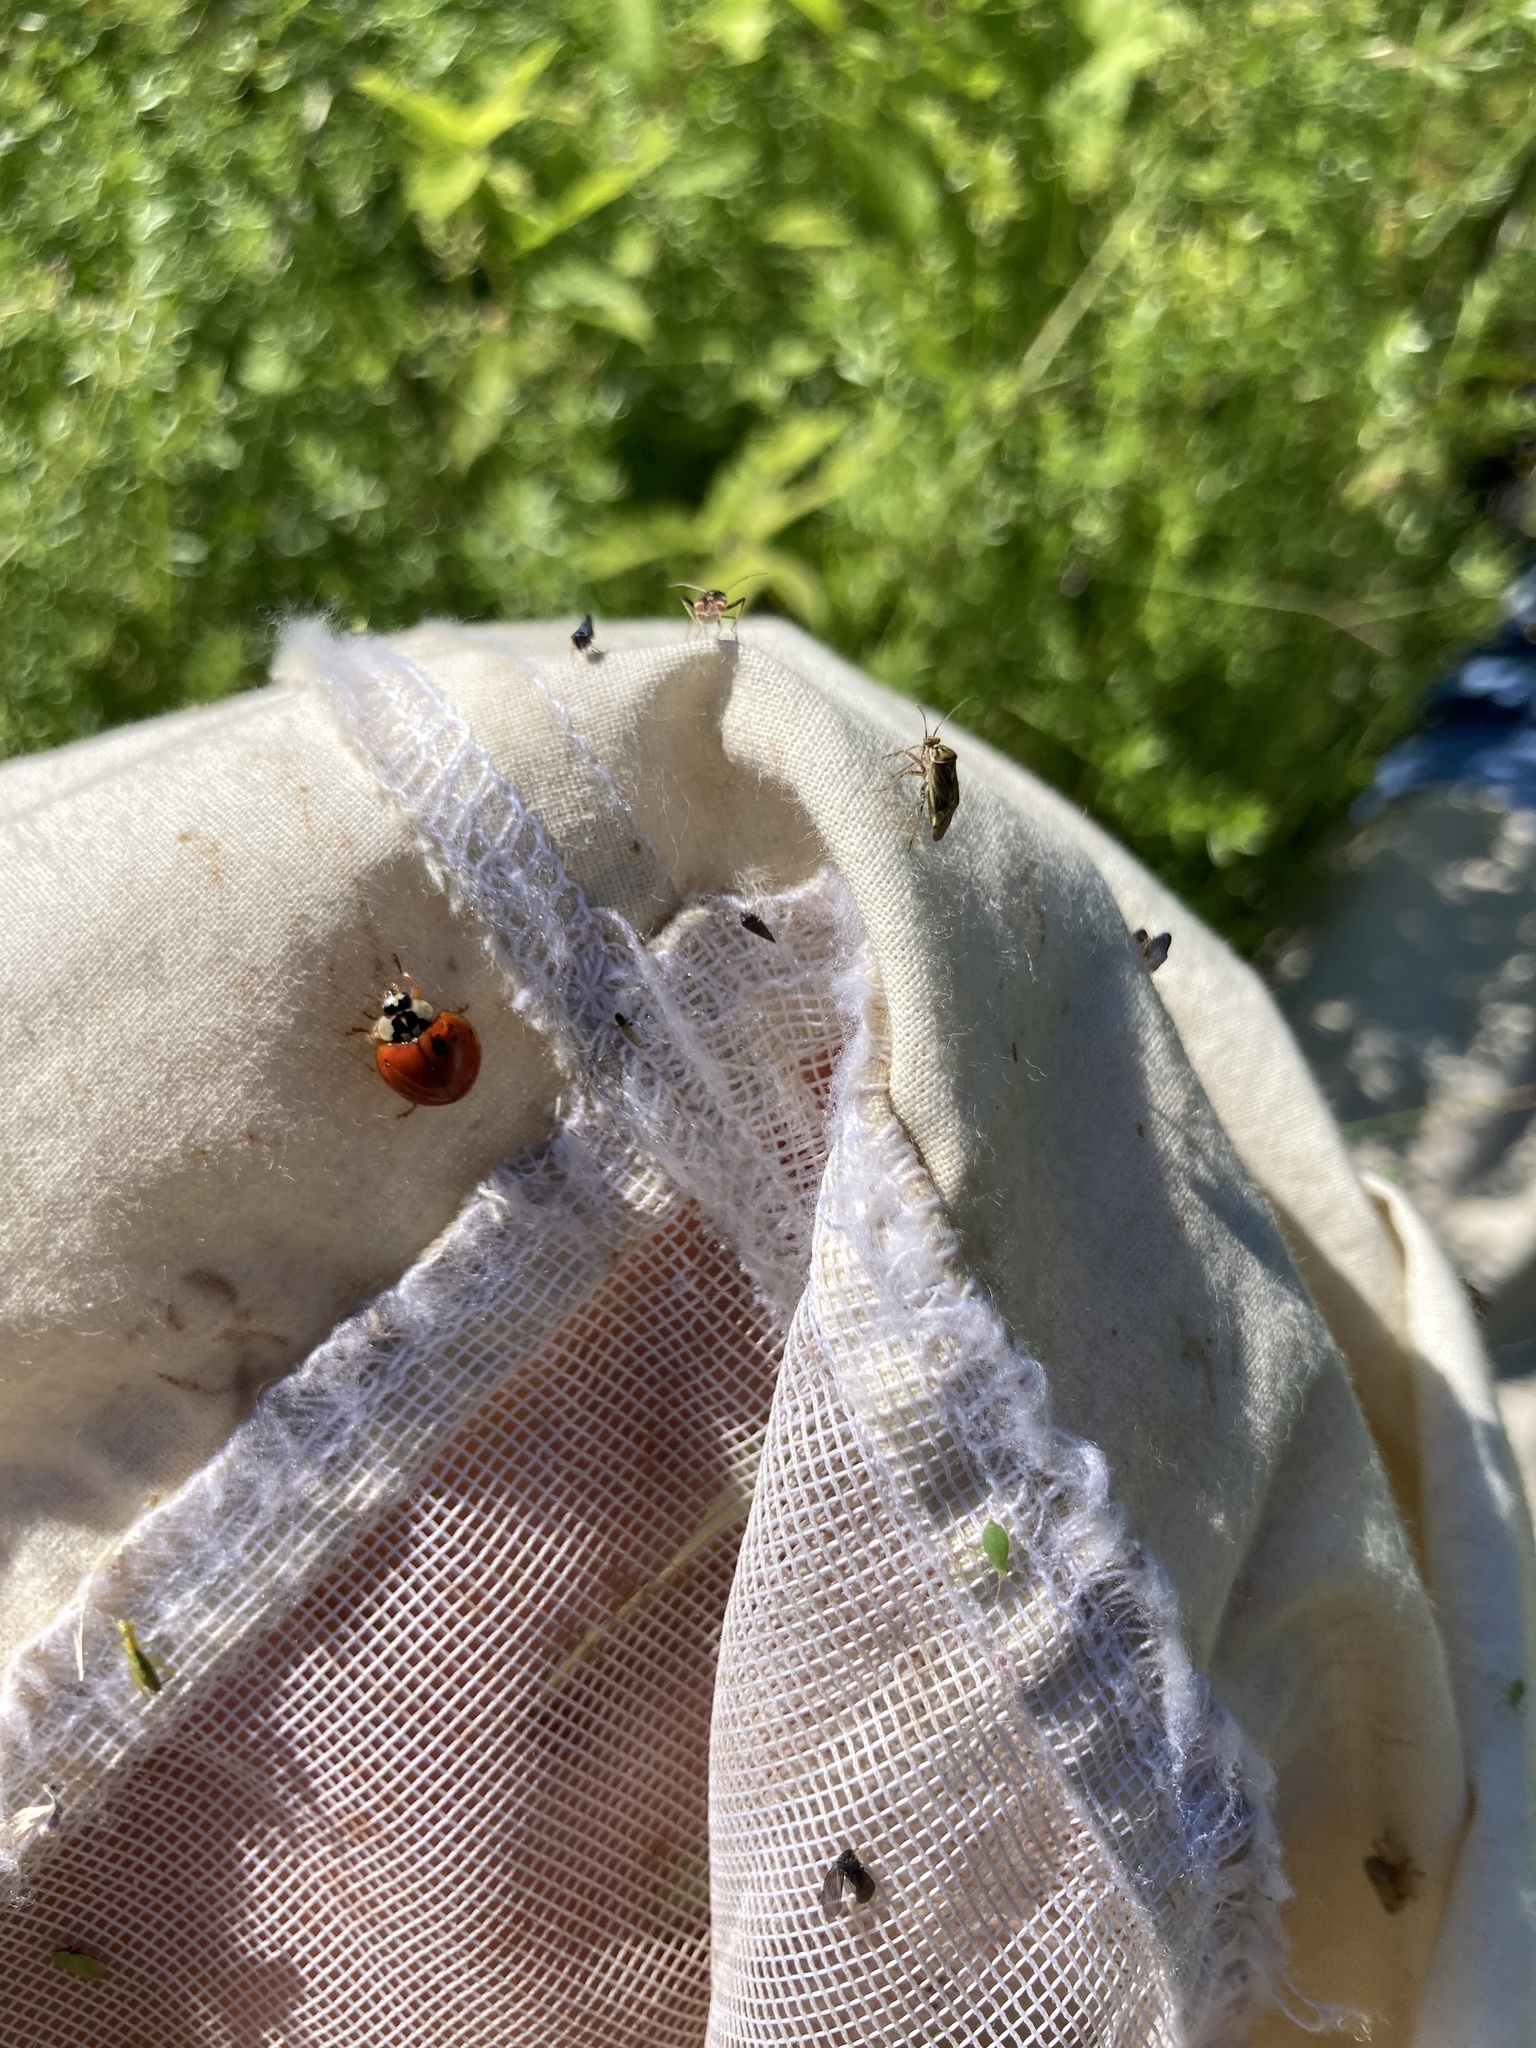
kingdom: Animalia
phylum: Arthropoda
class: Insecta
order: Coleoptera
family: Coccinellidae
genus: Harmonia
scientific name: Harmonia axyridis
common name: Harlequin ladybird
